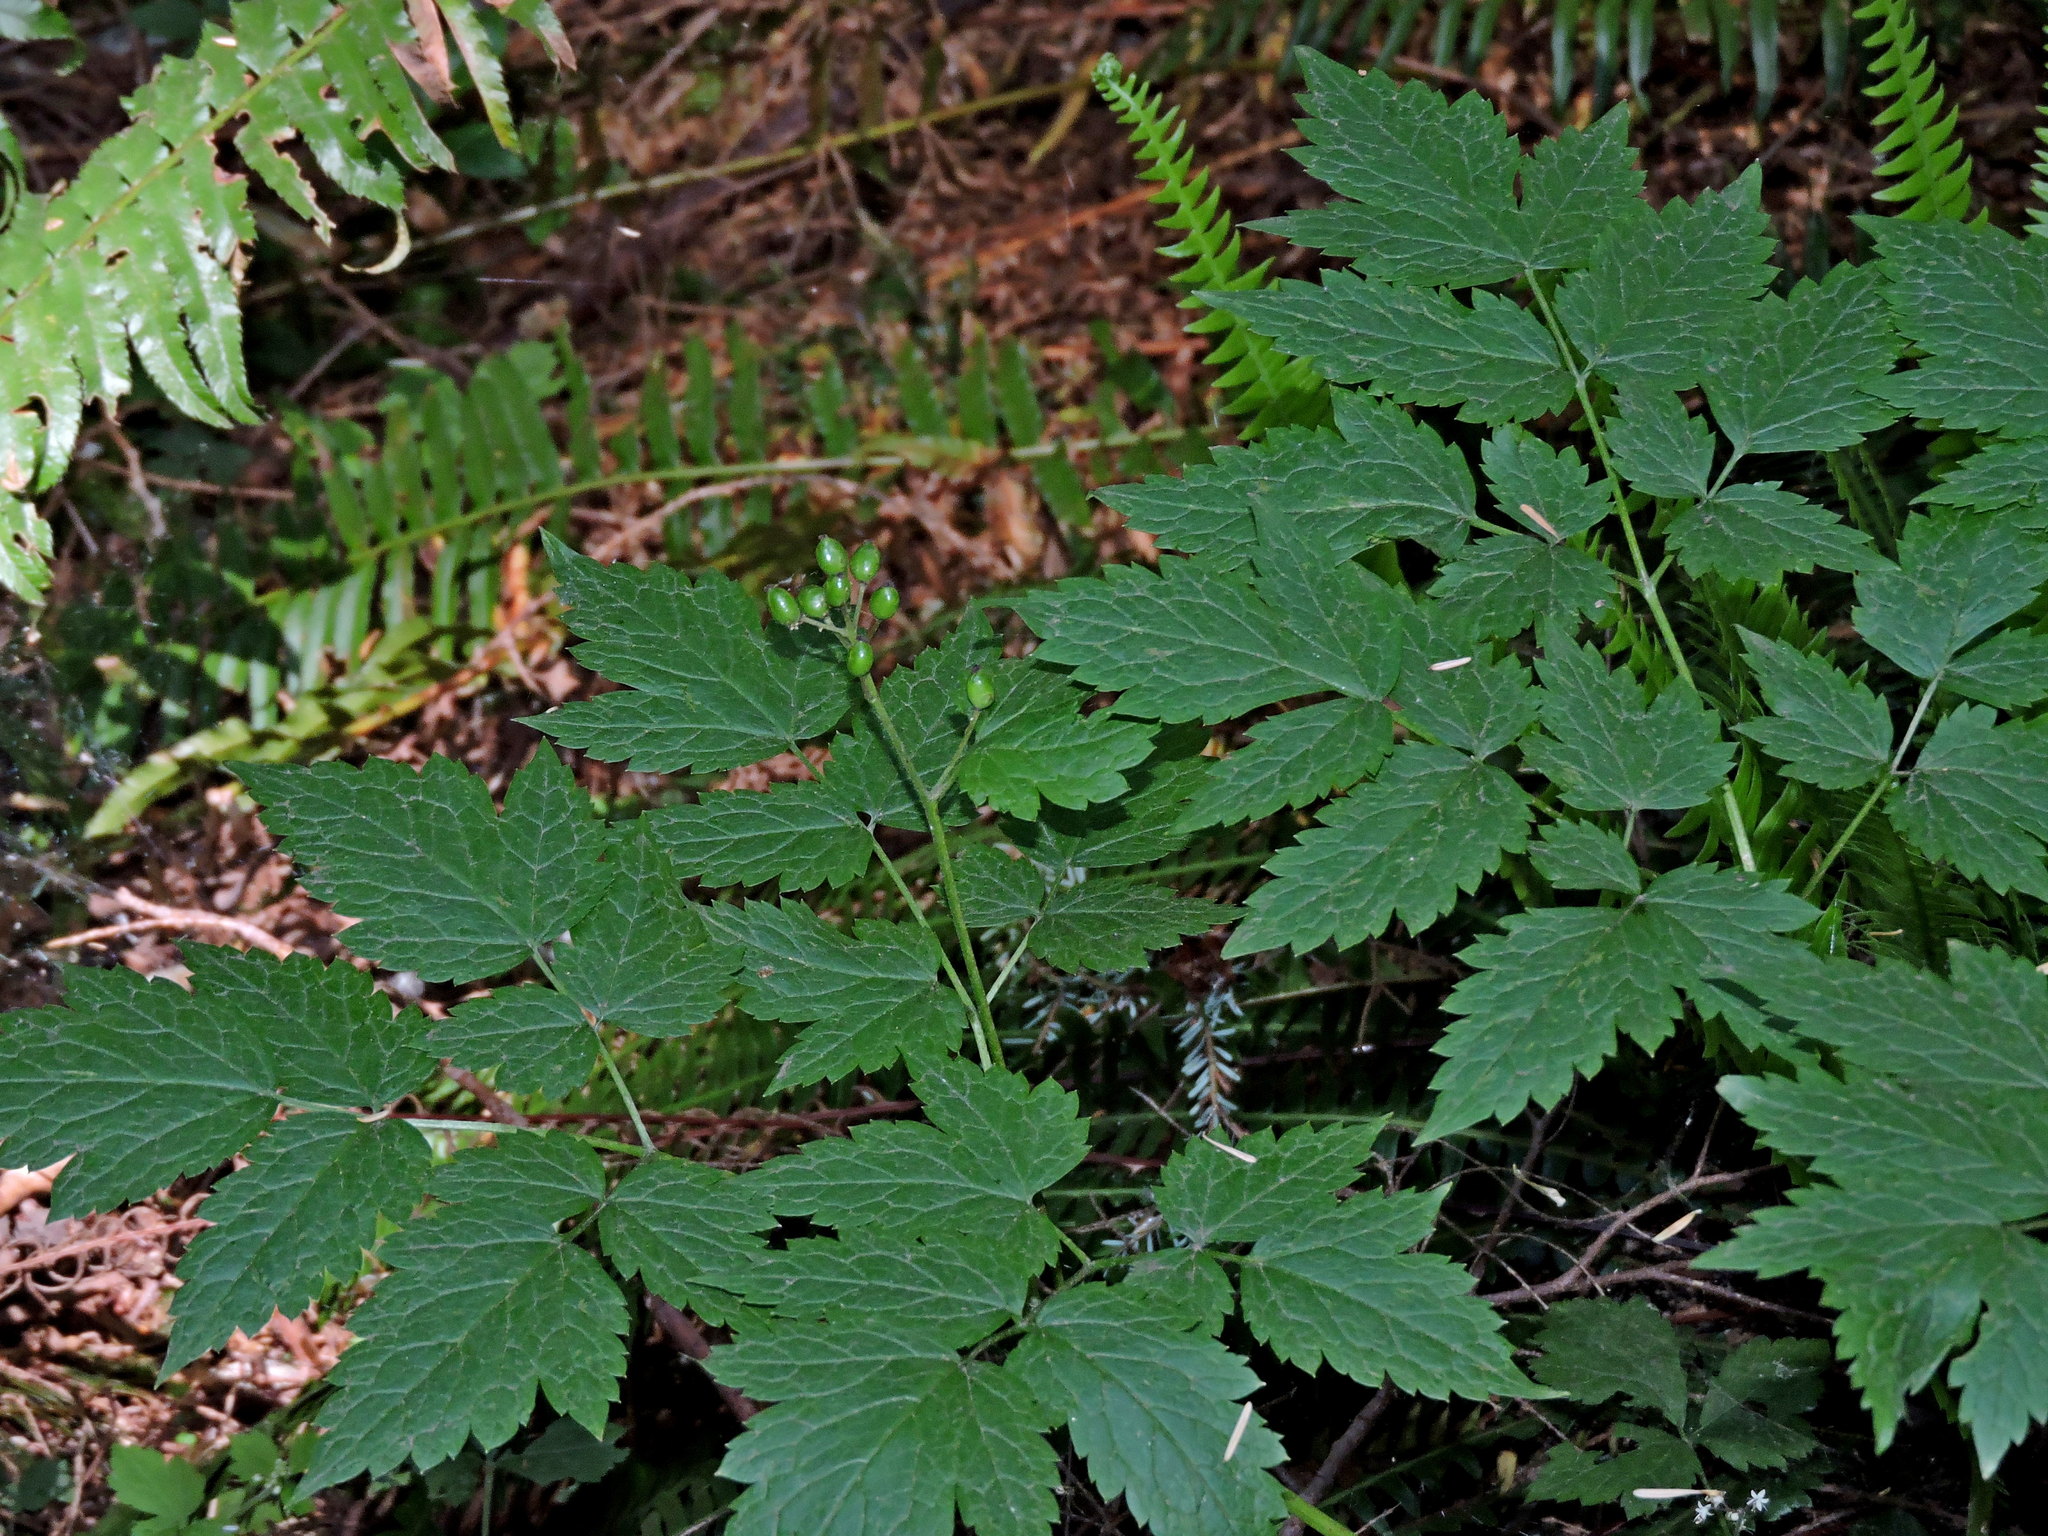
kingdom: Plantae
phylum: Tracheophyta
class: Magnoliopsida
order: Ranunculales
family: Ranunculaceae
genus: Actaea
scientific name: Actaea rubra
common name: Red baneberry
